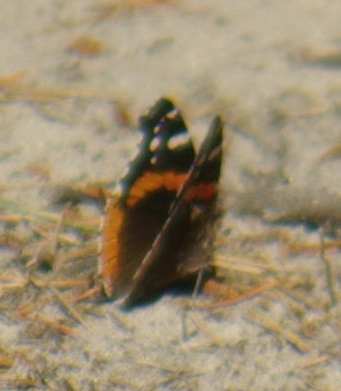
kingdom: Animalia
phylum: Arthropoda
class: Insecta
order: Lepidoptera
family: Nymphalidae
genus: Vanessa
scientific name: Vanessa atalanta
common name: Red admiral
